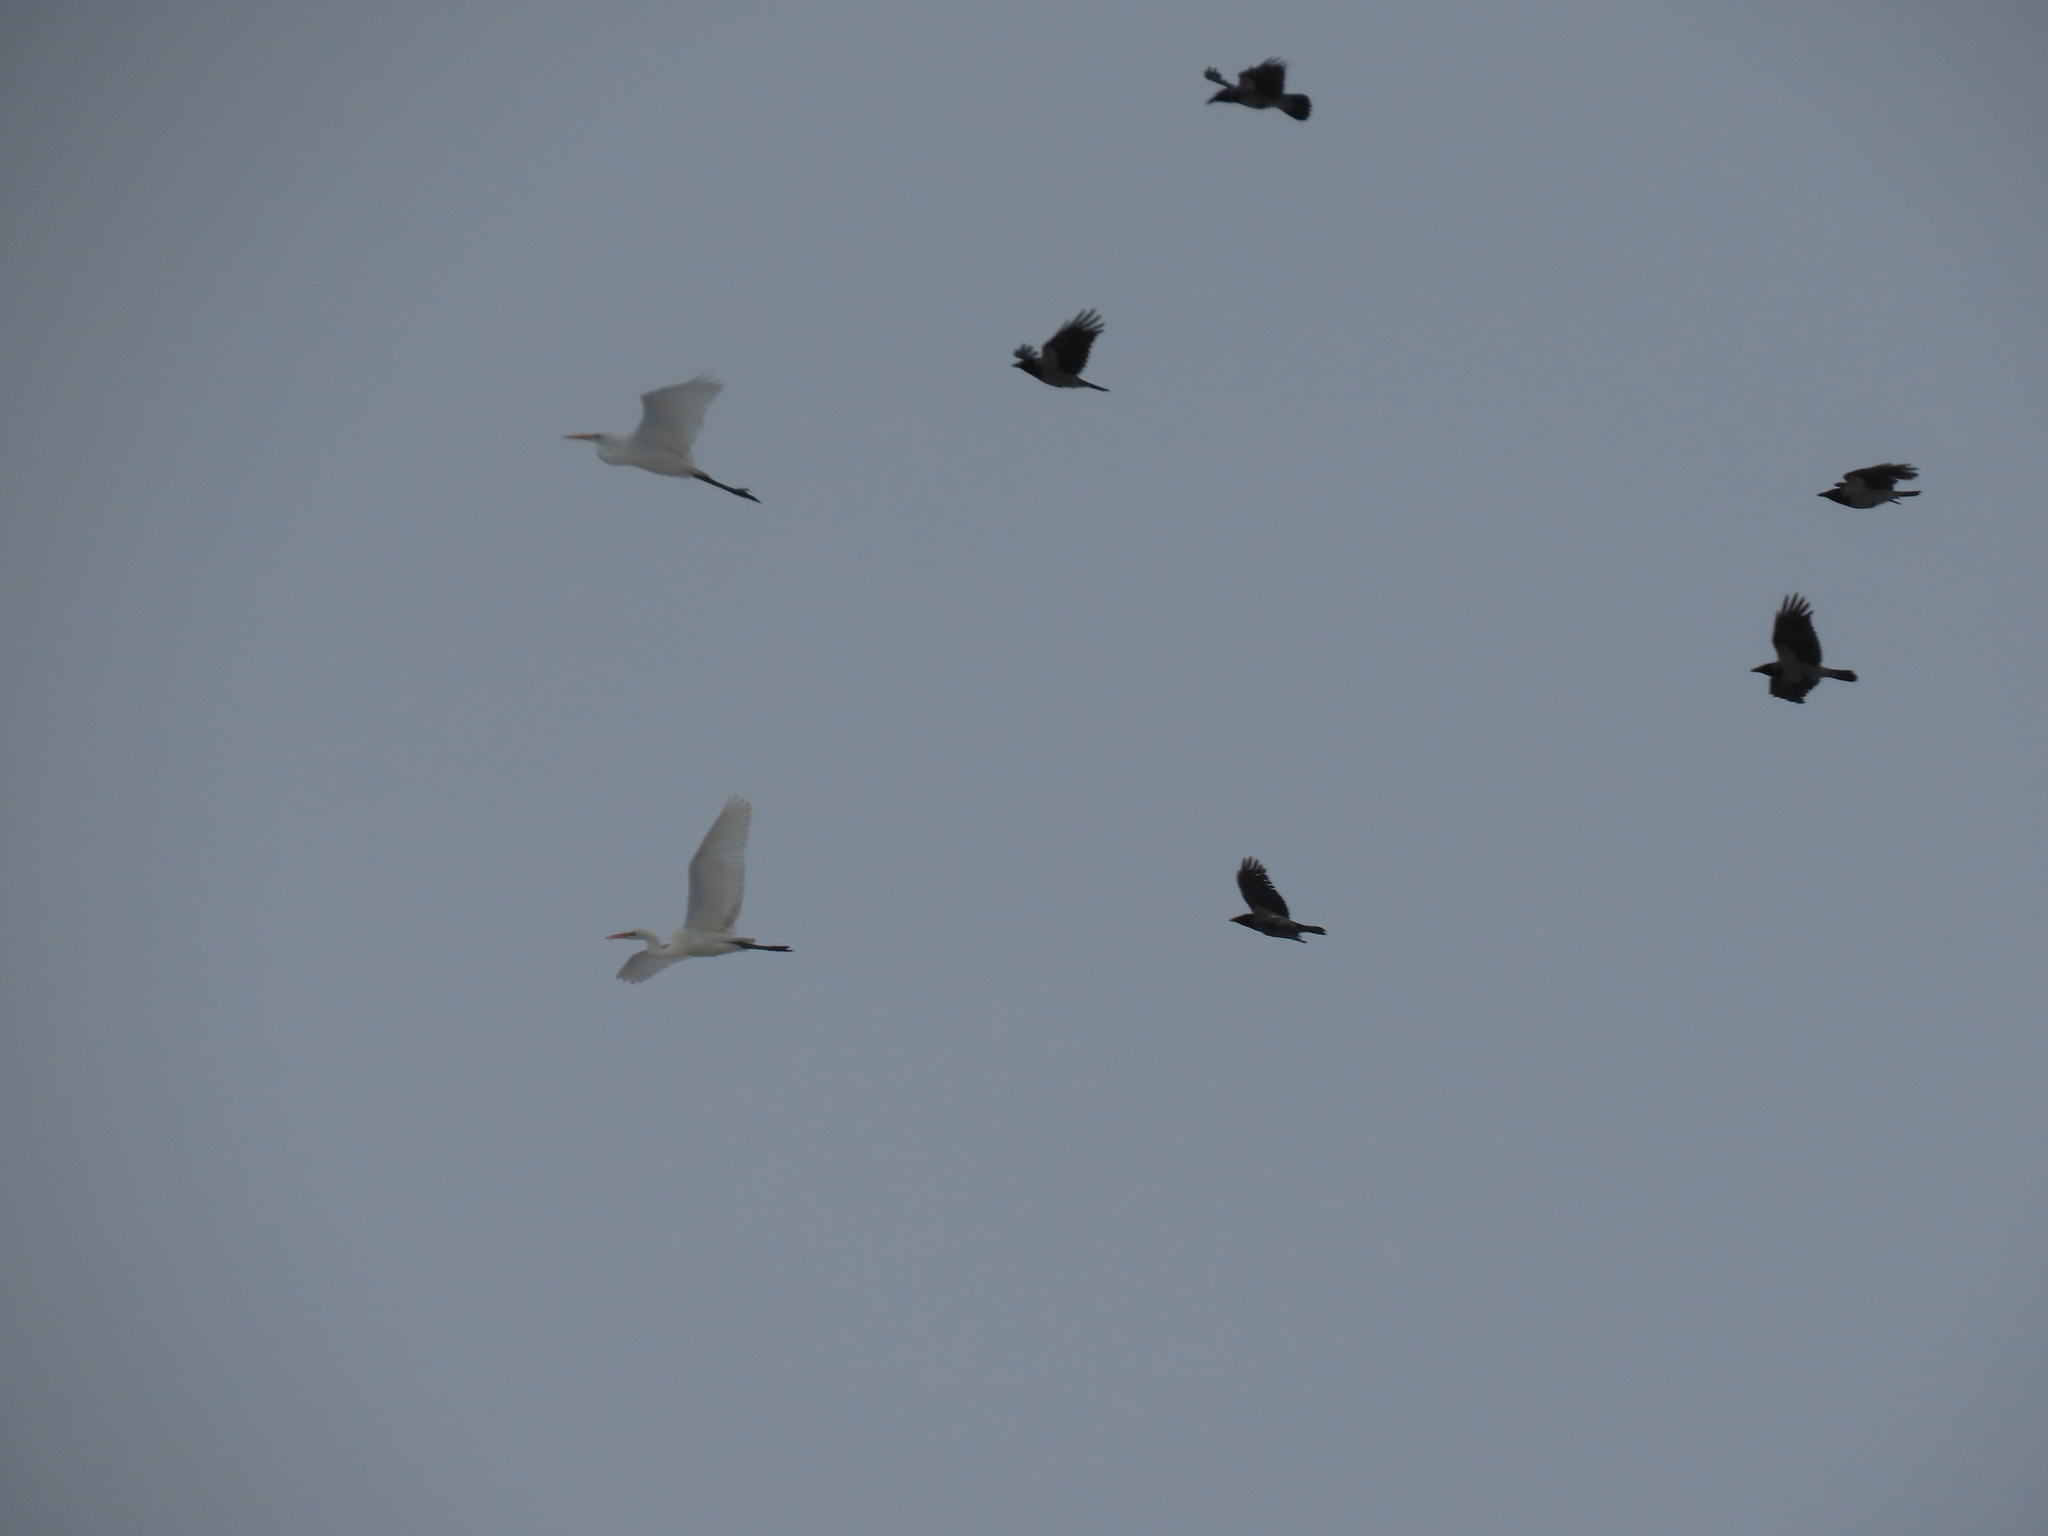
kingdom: Animalia
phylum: Chordata
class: Aves
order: Passeriformes
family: Corvidae
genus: Corvus
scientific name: Corvus cornix
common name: Hooded crow
